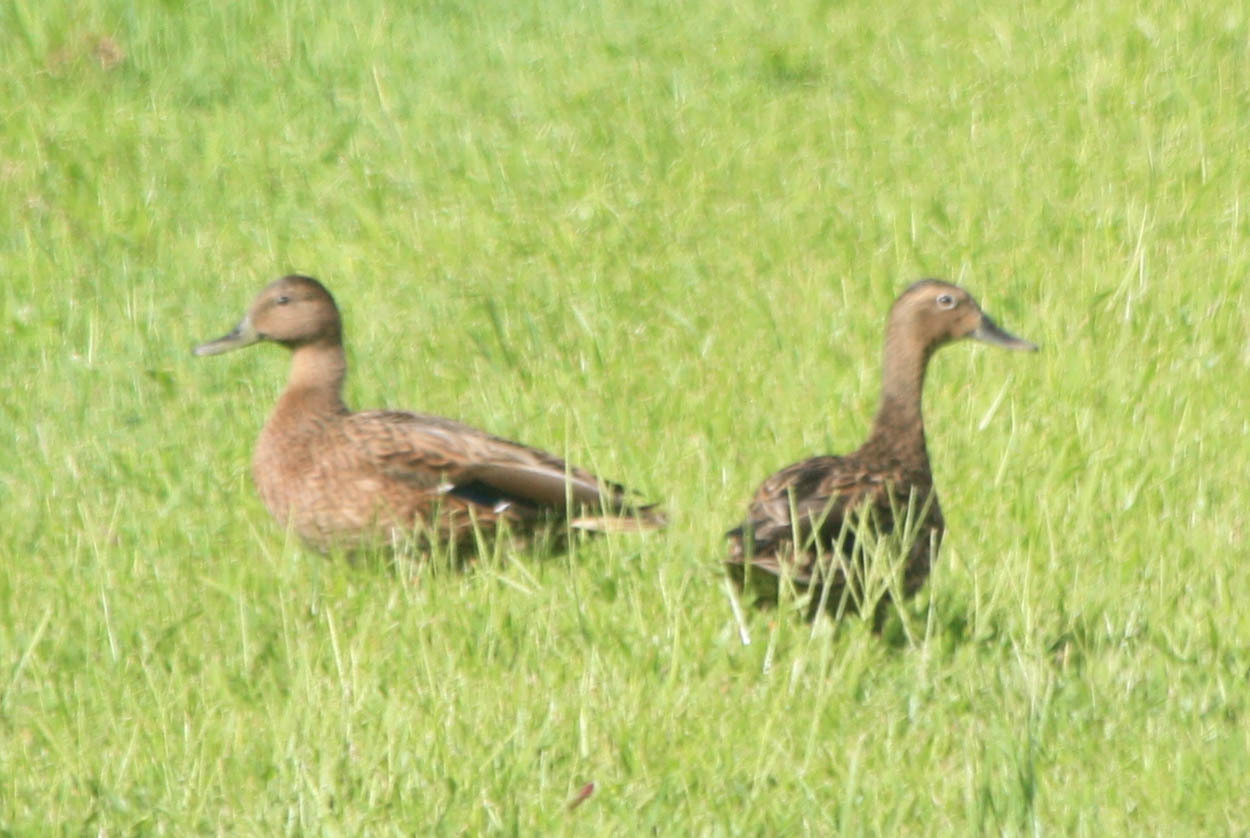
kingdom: Animalia
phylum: Chordata
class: Aves
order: Anseriformes
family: Anatidae
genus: Anas
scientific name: Anas wyvilliana
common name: Hawaiian duck
